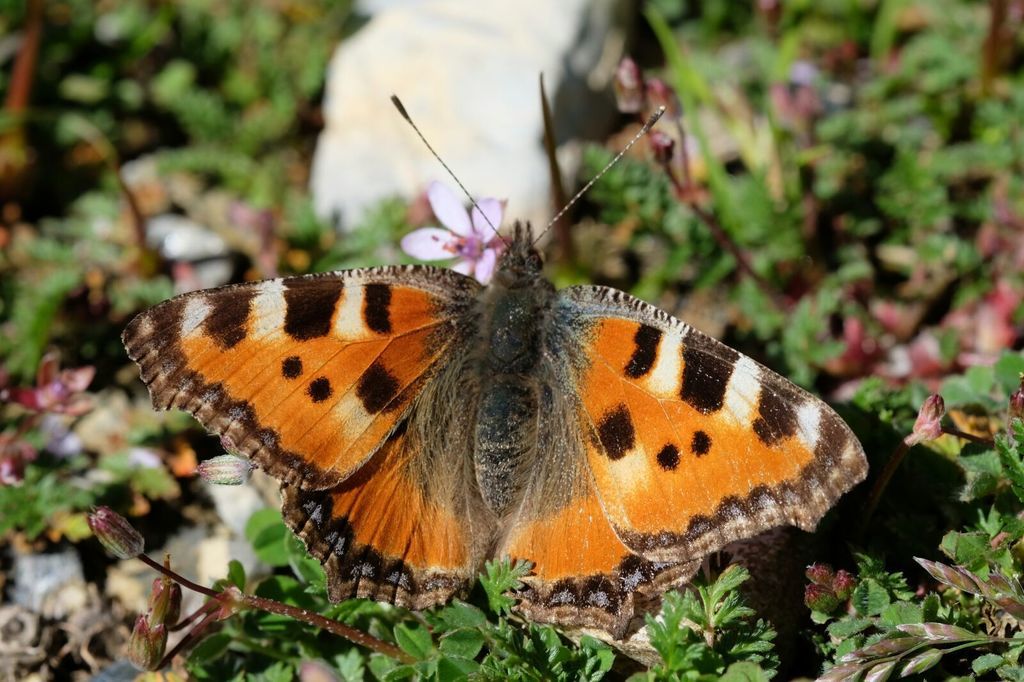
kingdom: Animalia
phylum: Arthropoda
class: Insecta
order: Lepidoptera
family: Nymphalidae
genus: Aglais
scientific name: Aglais urticae
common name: Small tortoiseshell
